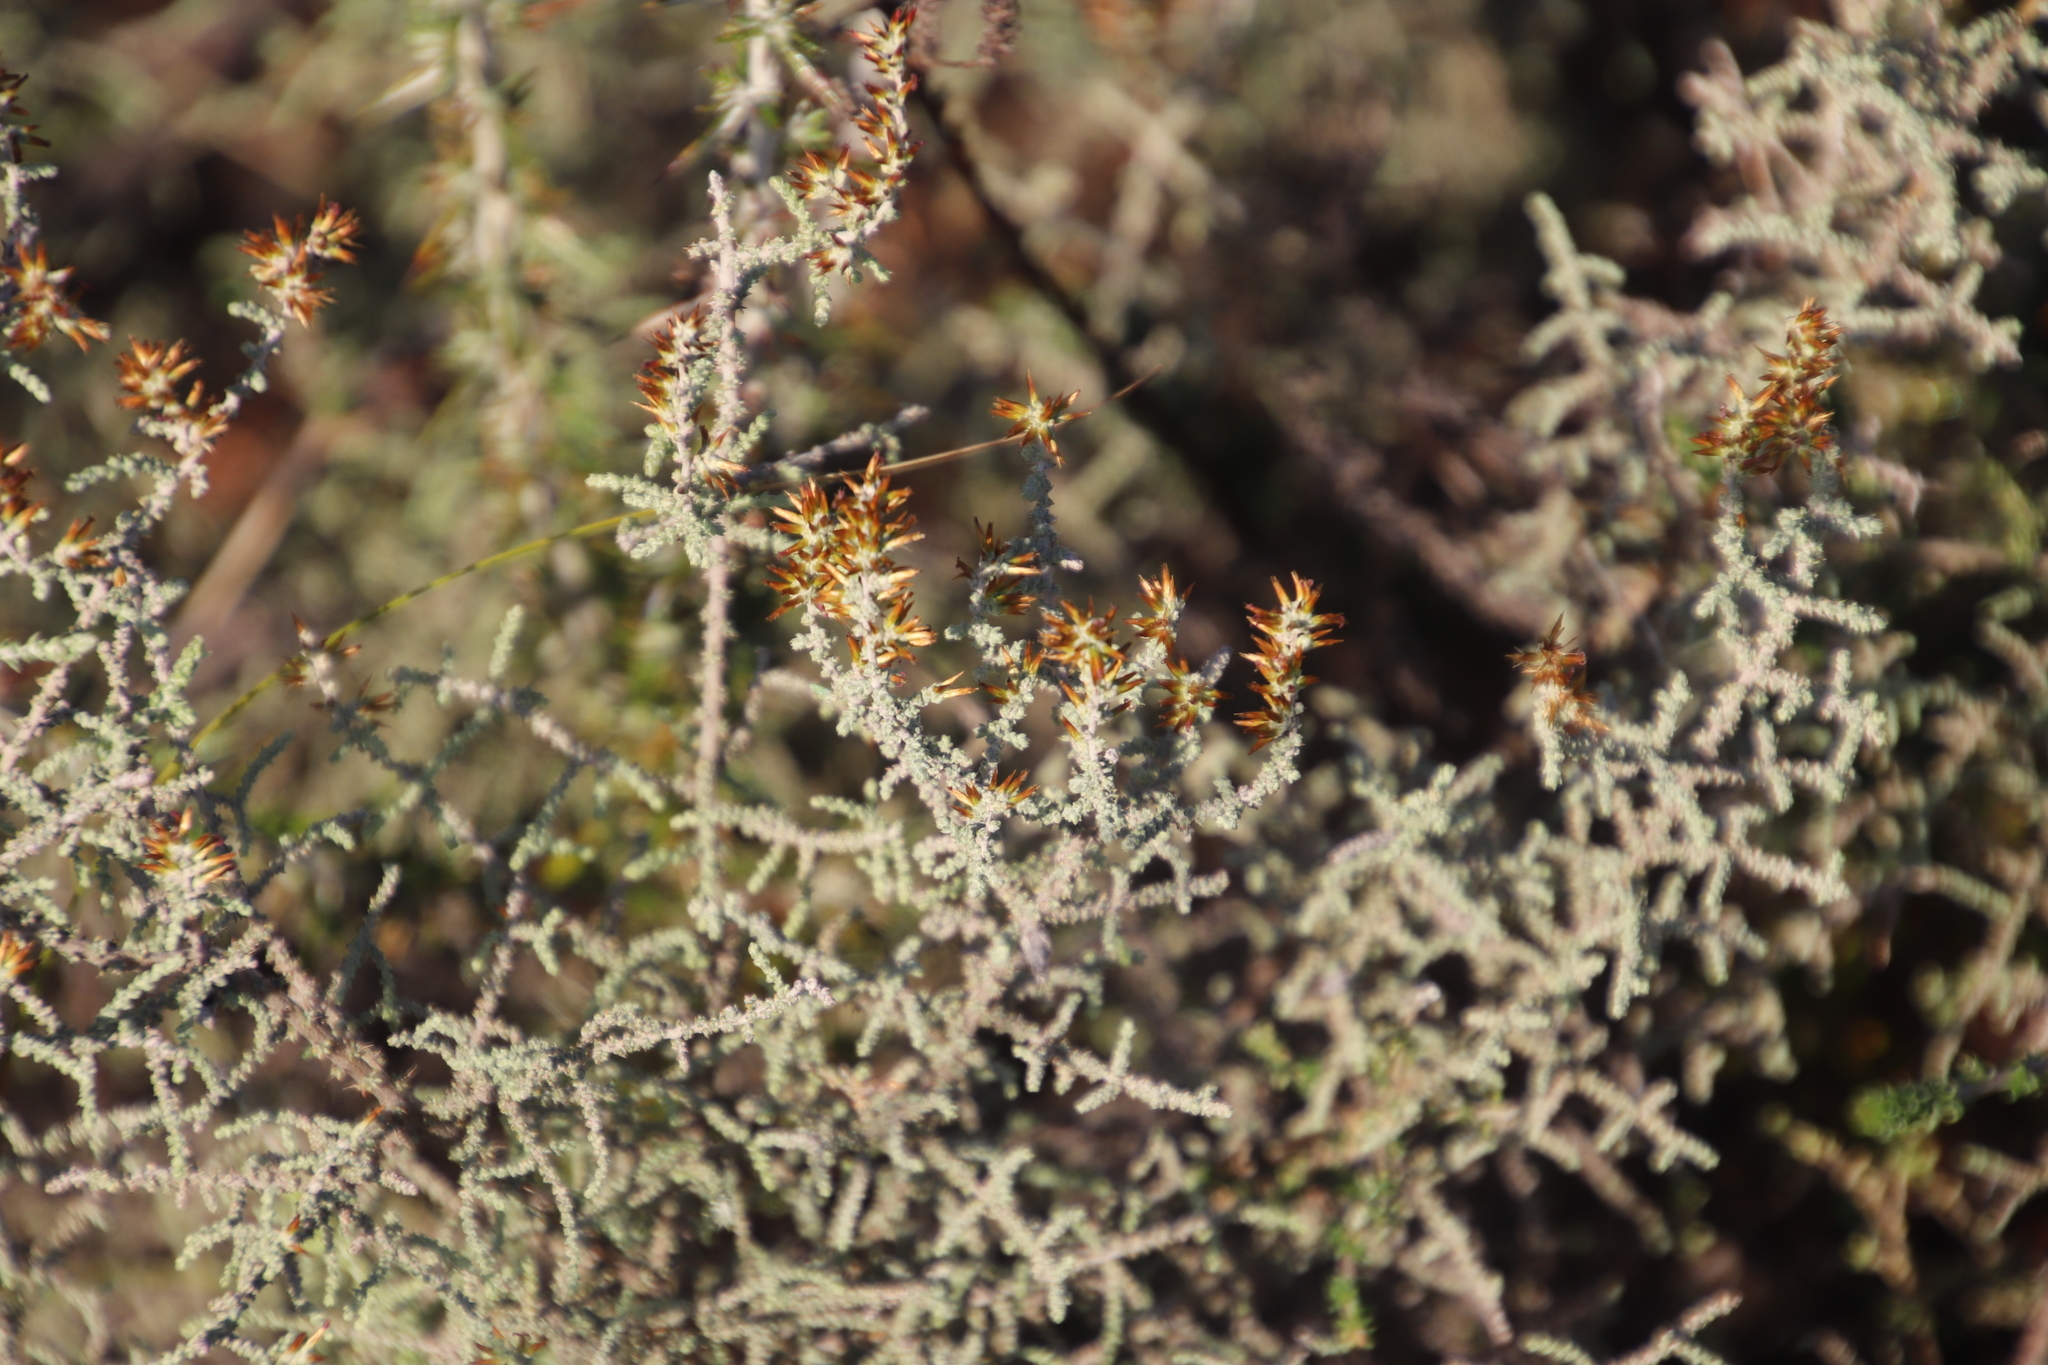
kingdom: Plantae
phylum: Tracheophyta
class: Magnoliopsida
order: Asterales
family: Asteraceae
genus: Seriphium
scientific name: Seriphium plumosum
